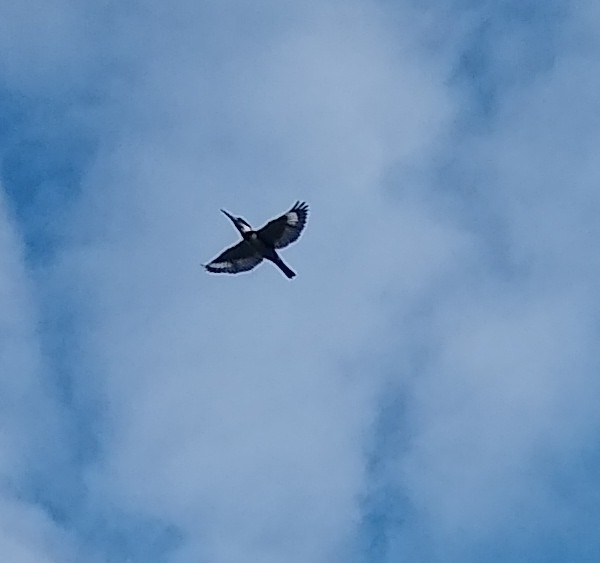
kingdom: Animalia
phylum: Chordata
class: Aves
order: Coraciiformes
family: Alcedinidae
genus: Megaceryle
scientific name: Megaceryle alcyon
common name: Belted kingfisher
